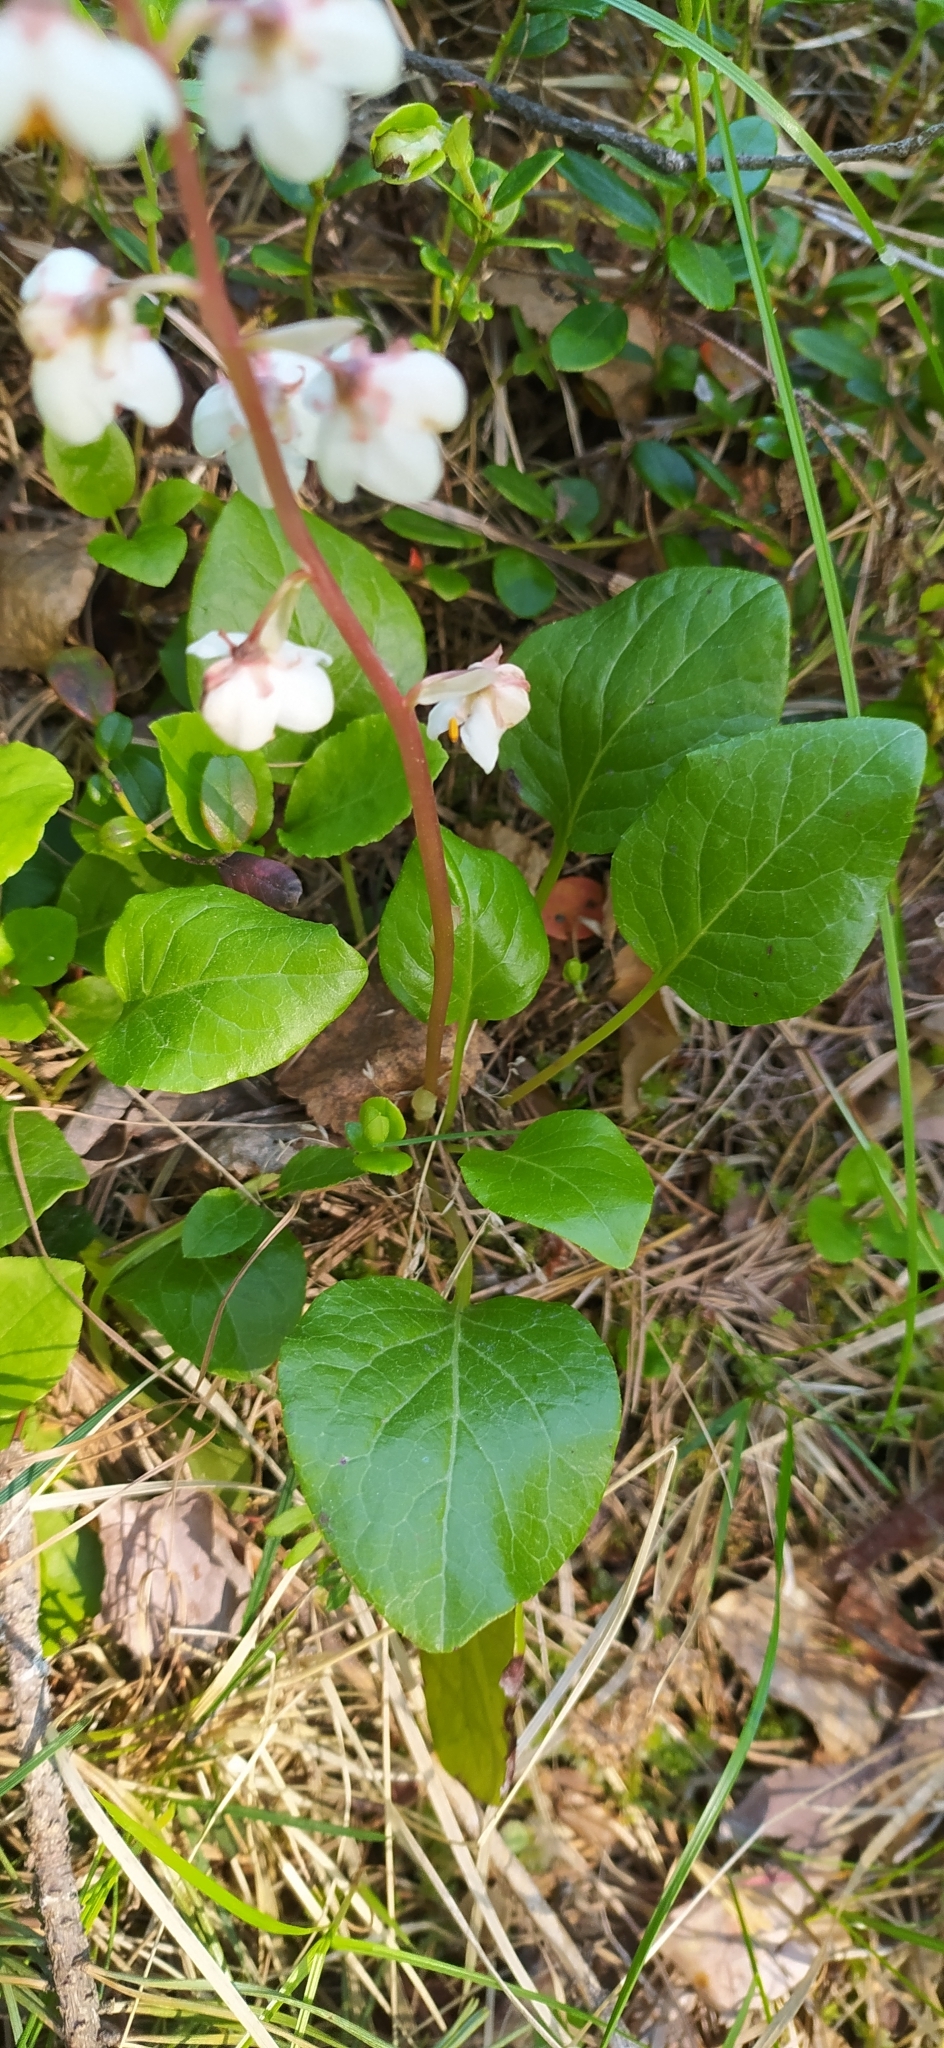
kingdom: Plantae
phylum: Tracheophyta
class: Magnoliopsida
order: Ericales
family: Ericaceae
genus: Pyrola
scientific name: Pyrola rotundifolia
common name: Round-leaved wintergreen
